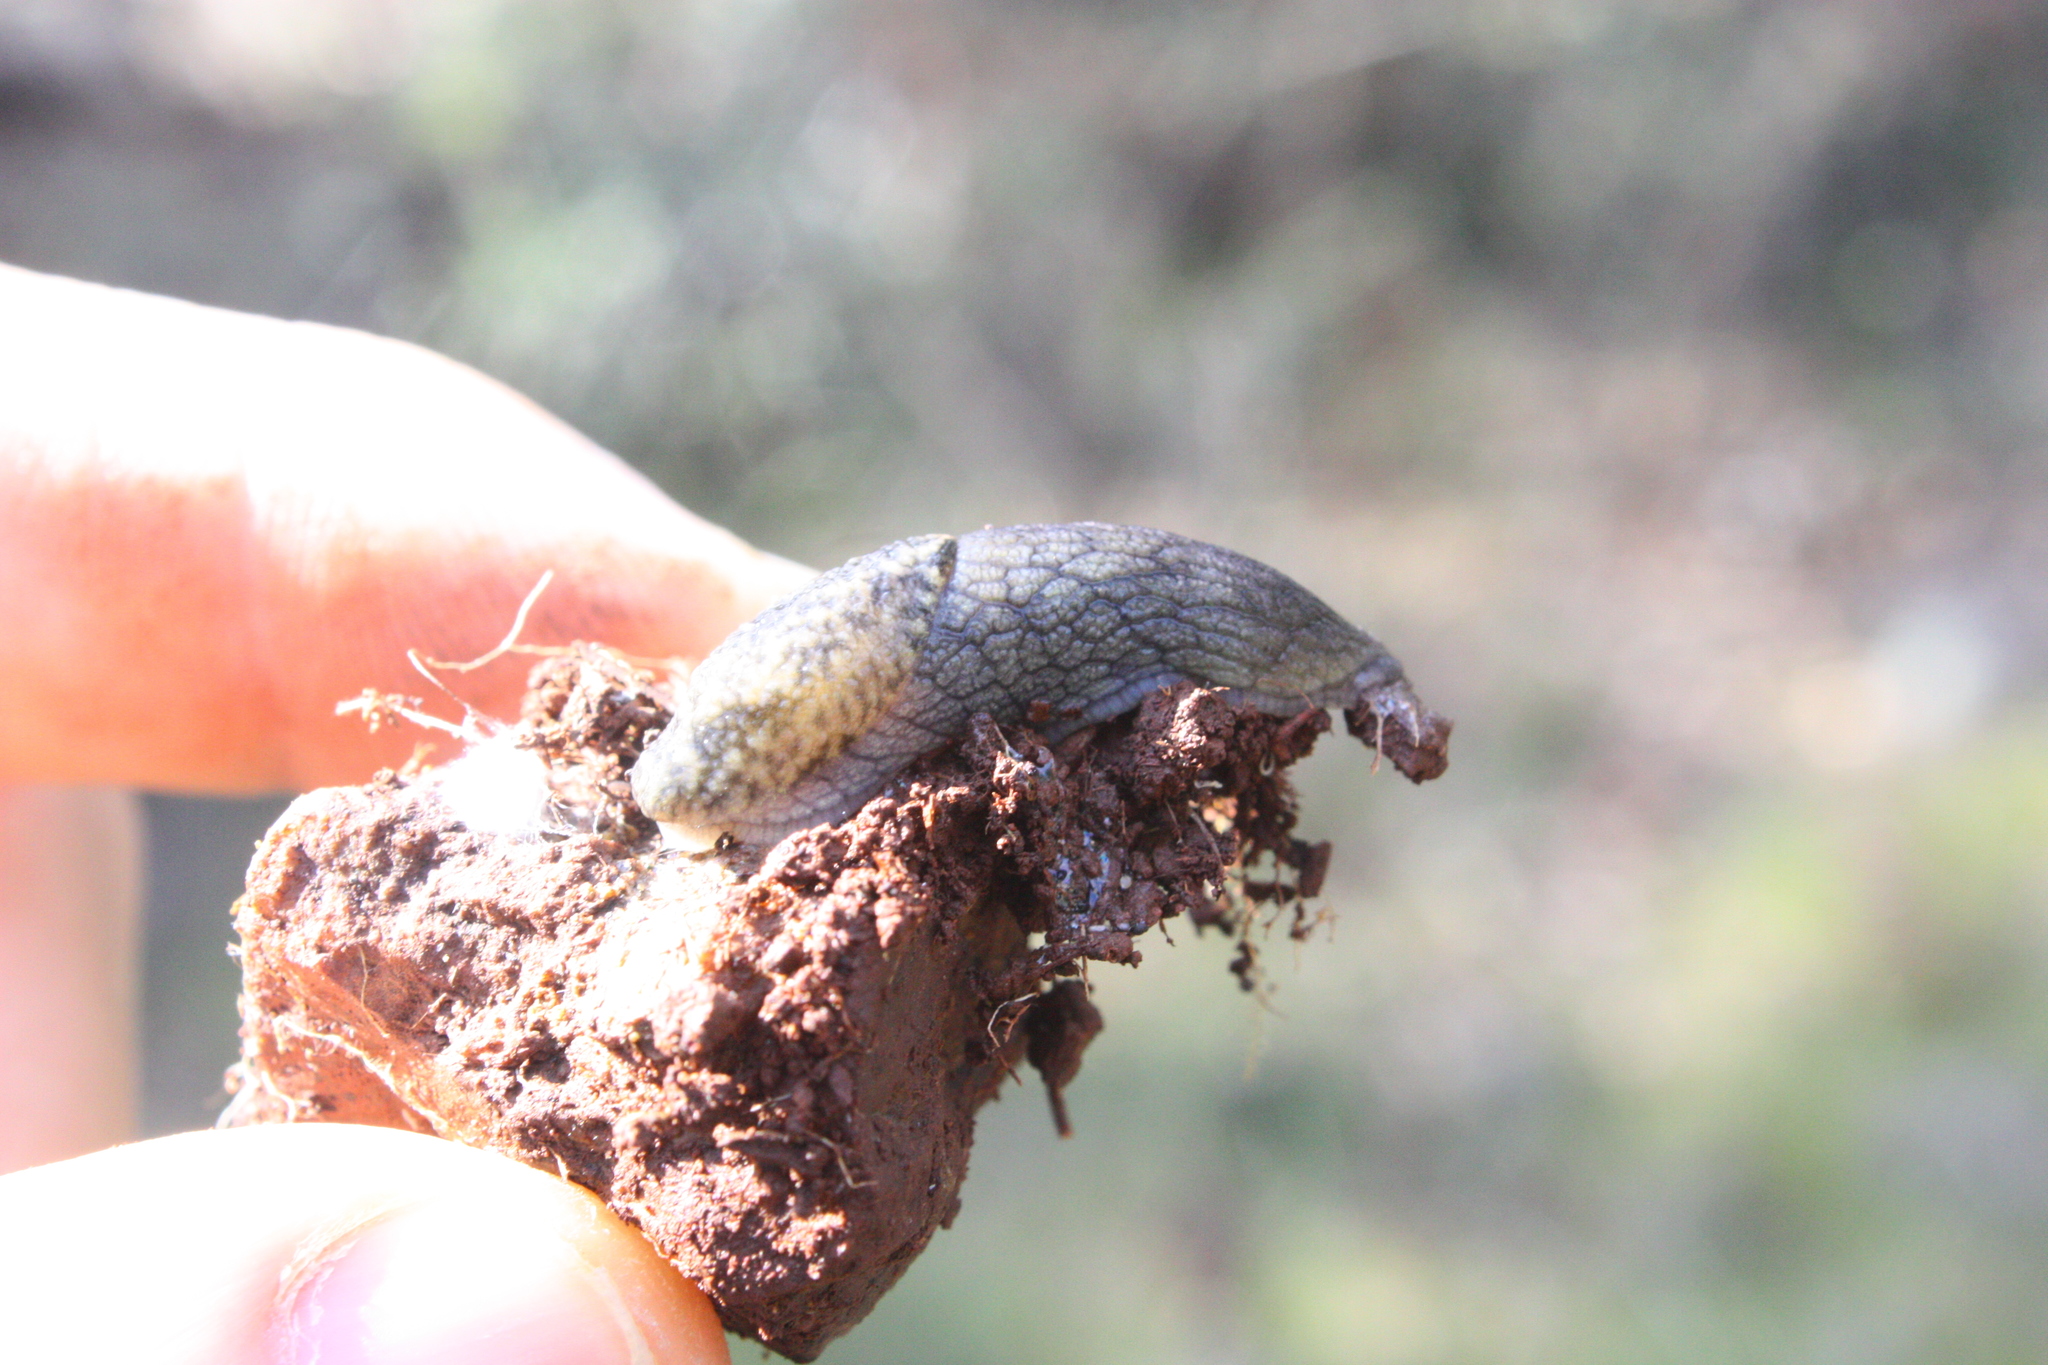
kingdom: Animalia
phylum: Mollusca
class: Gastropoda
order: Stylommatophora
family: Ariolimacidae
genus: Prophysaon
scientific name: Prophysaon andersonii
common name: Reticulate taildropper
